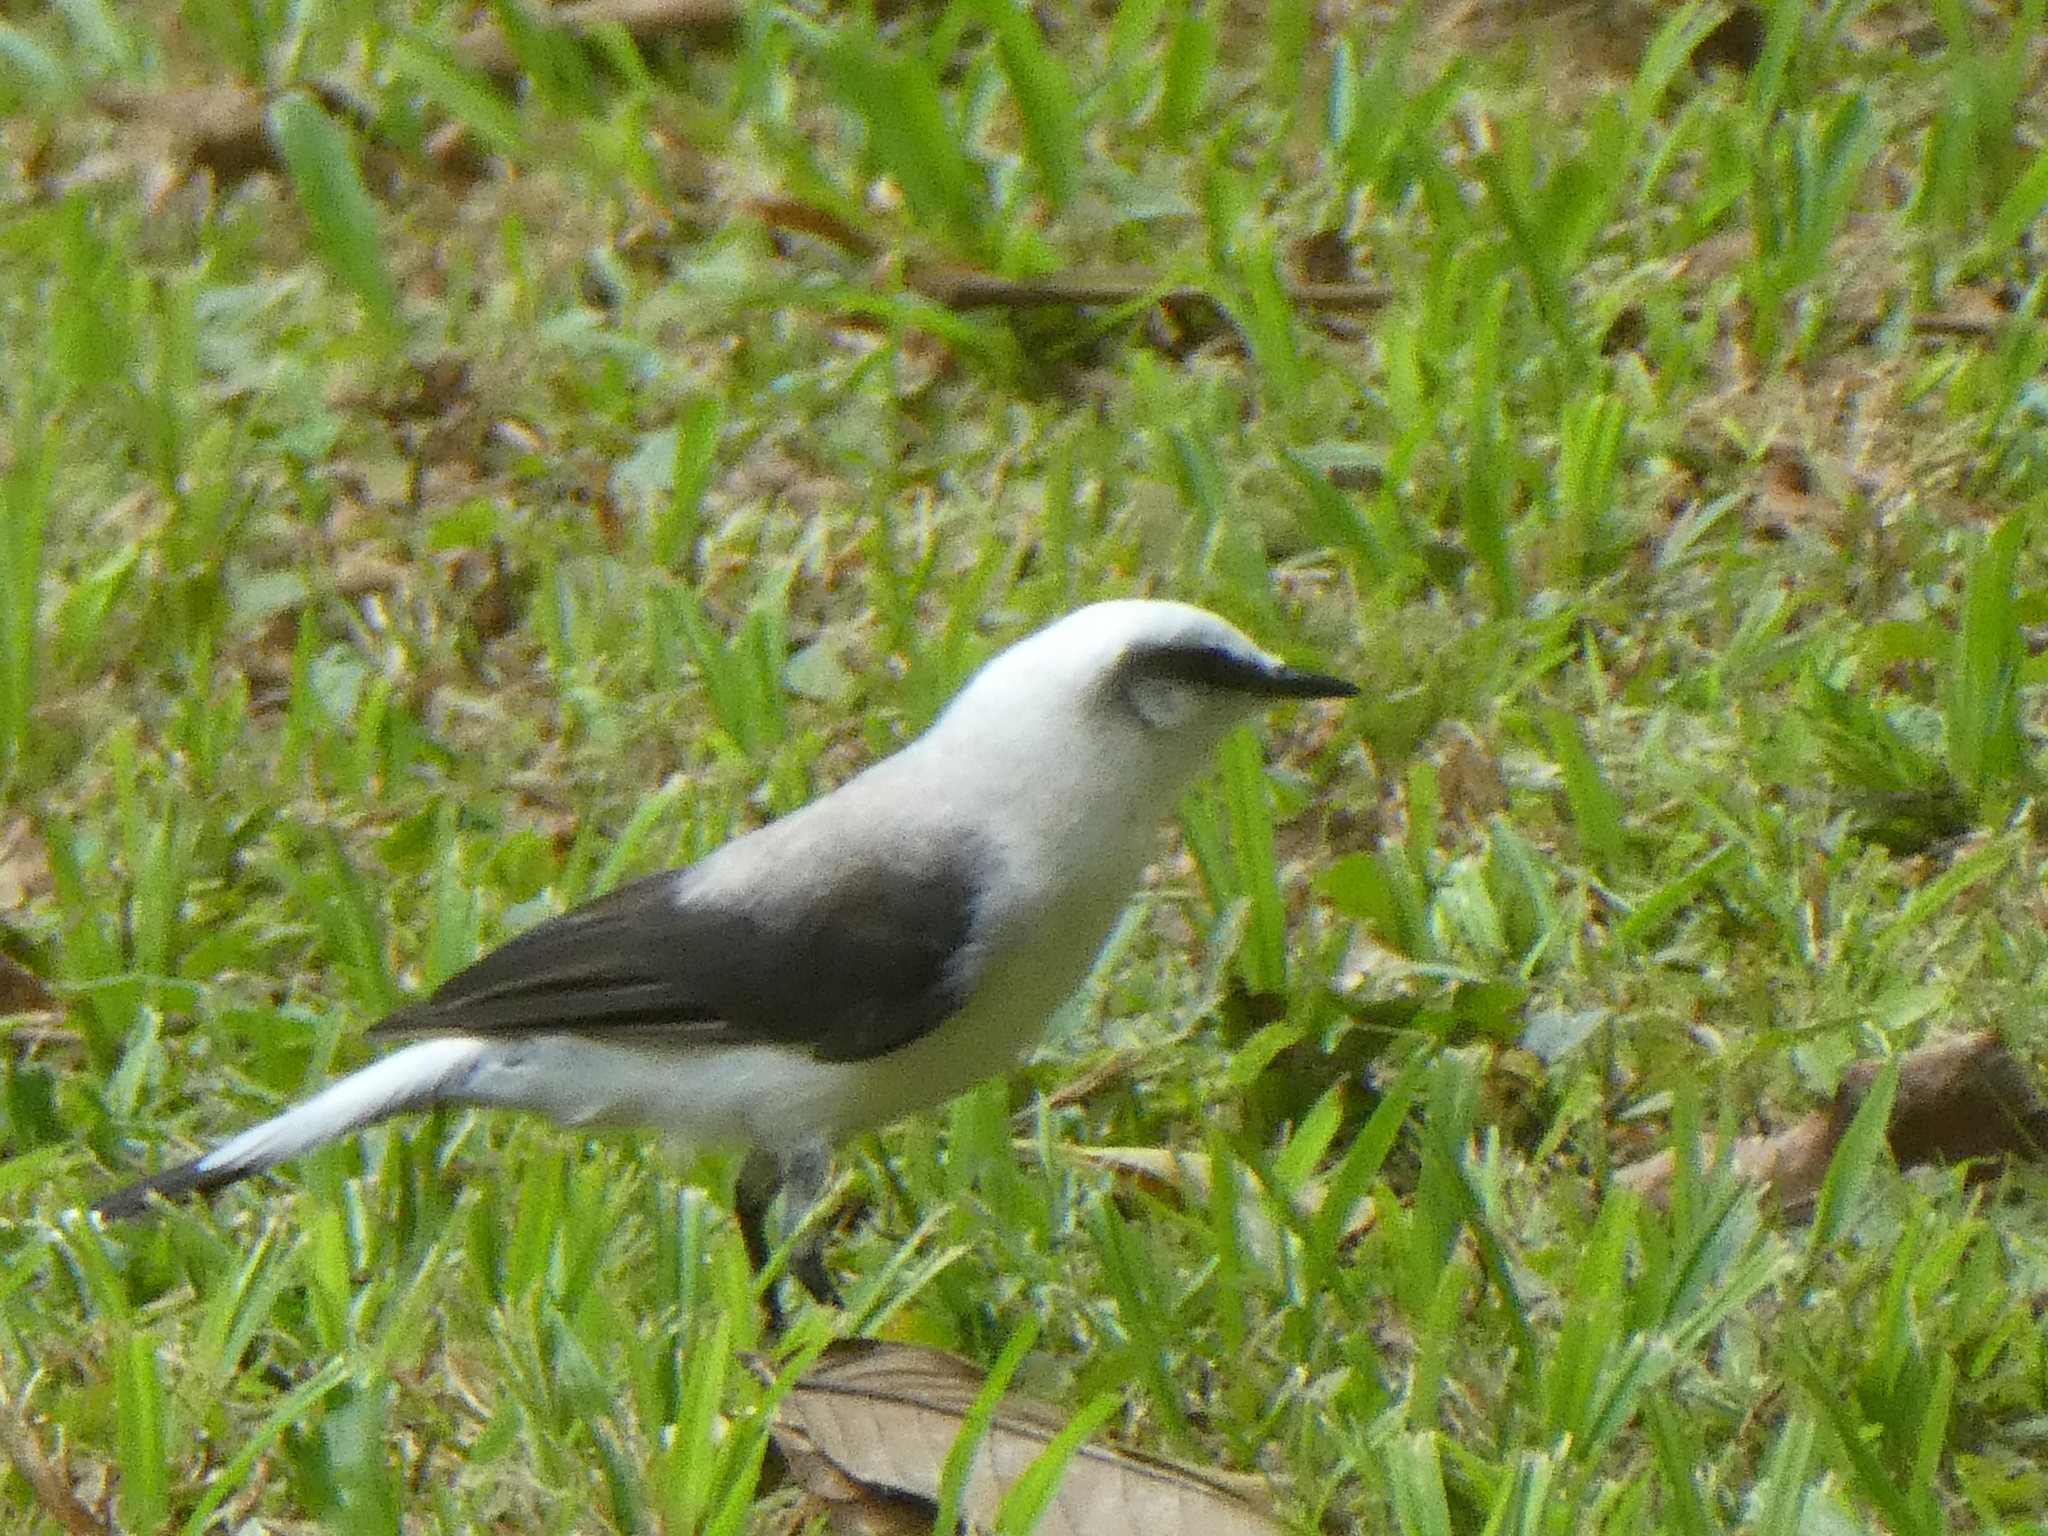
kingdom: Animalia
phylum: Chordata
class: Aves
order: Passeriformes
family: Tyrannidae
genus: Fluvicola
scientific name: Fluvicola nengeta
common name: Masked water tyrant
